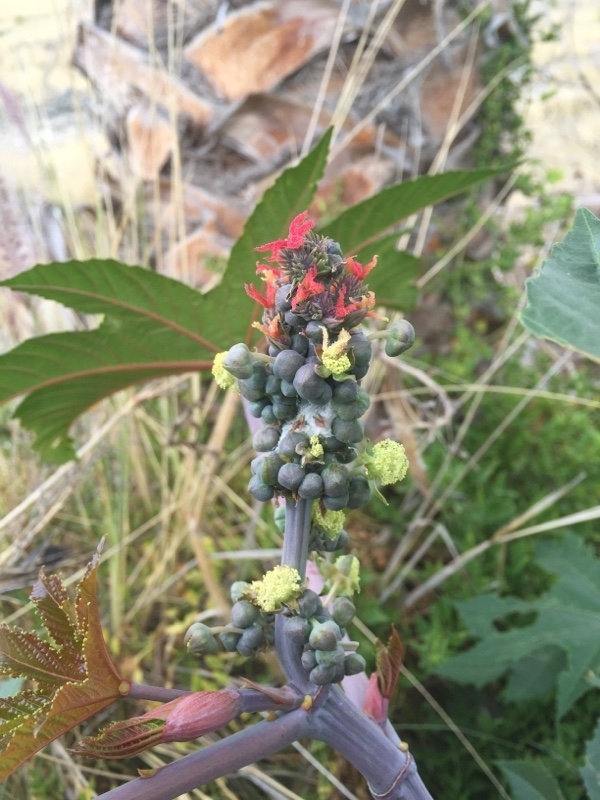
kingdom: Plantae
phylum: Tracheophyta
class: Magnoliopsida
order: Malpighiales
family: Euphorbiaceae
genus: Ricinus
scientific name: Ricinus communis
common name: Castor-oil-plant
